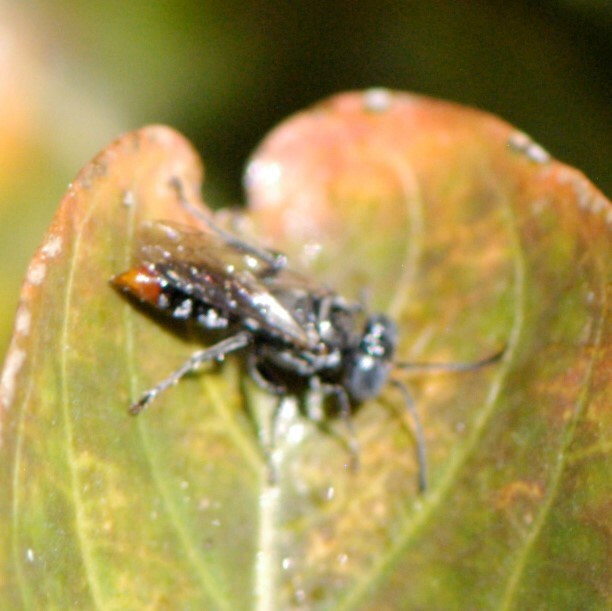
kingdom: Animalia
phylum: Arthropoda
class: Insecta
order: Hymenoptera
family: Crabronidae
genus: Tachysphex
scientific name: Tachysphex
